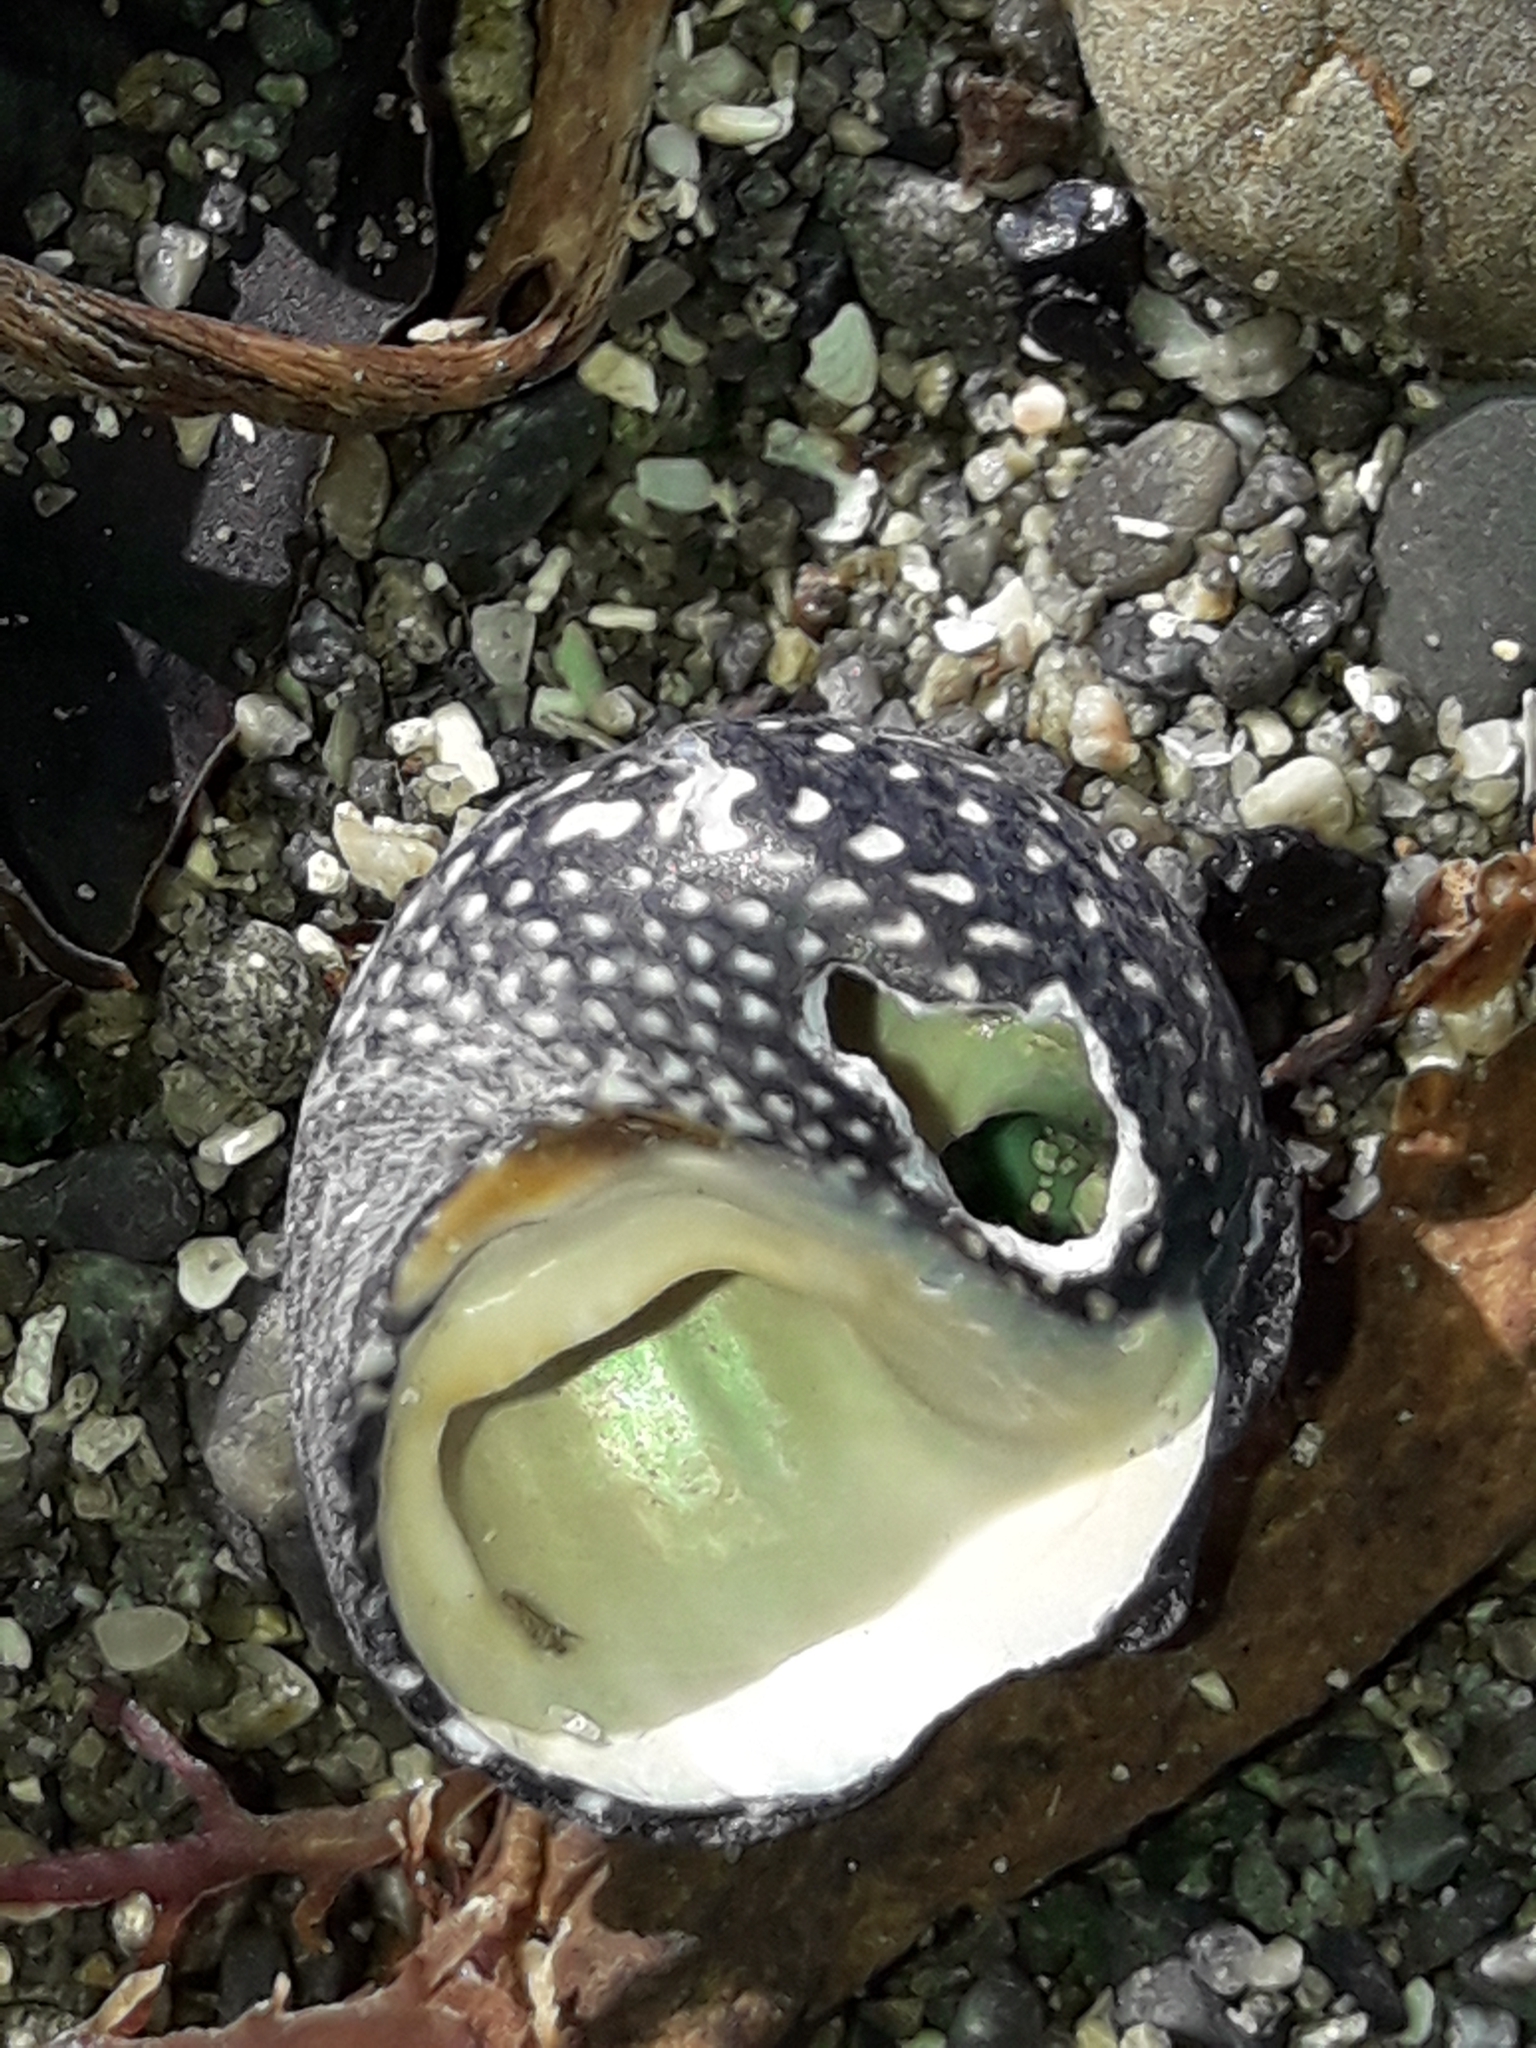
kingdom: Animalia
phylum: Mollusca
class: Gastropoda
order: Trochida
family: Trochidae
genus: Diloma
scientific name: Diloma aethiops
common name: Scorched monodont
